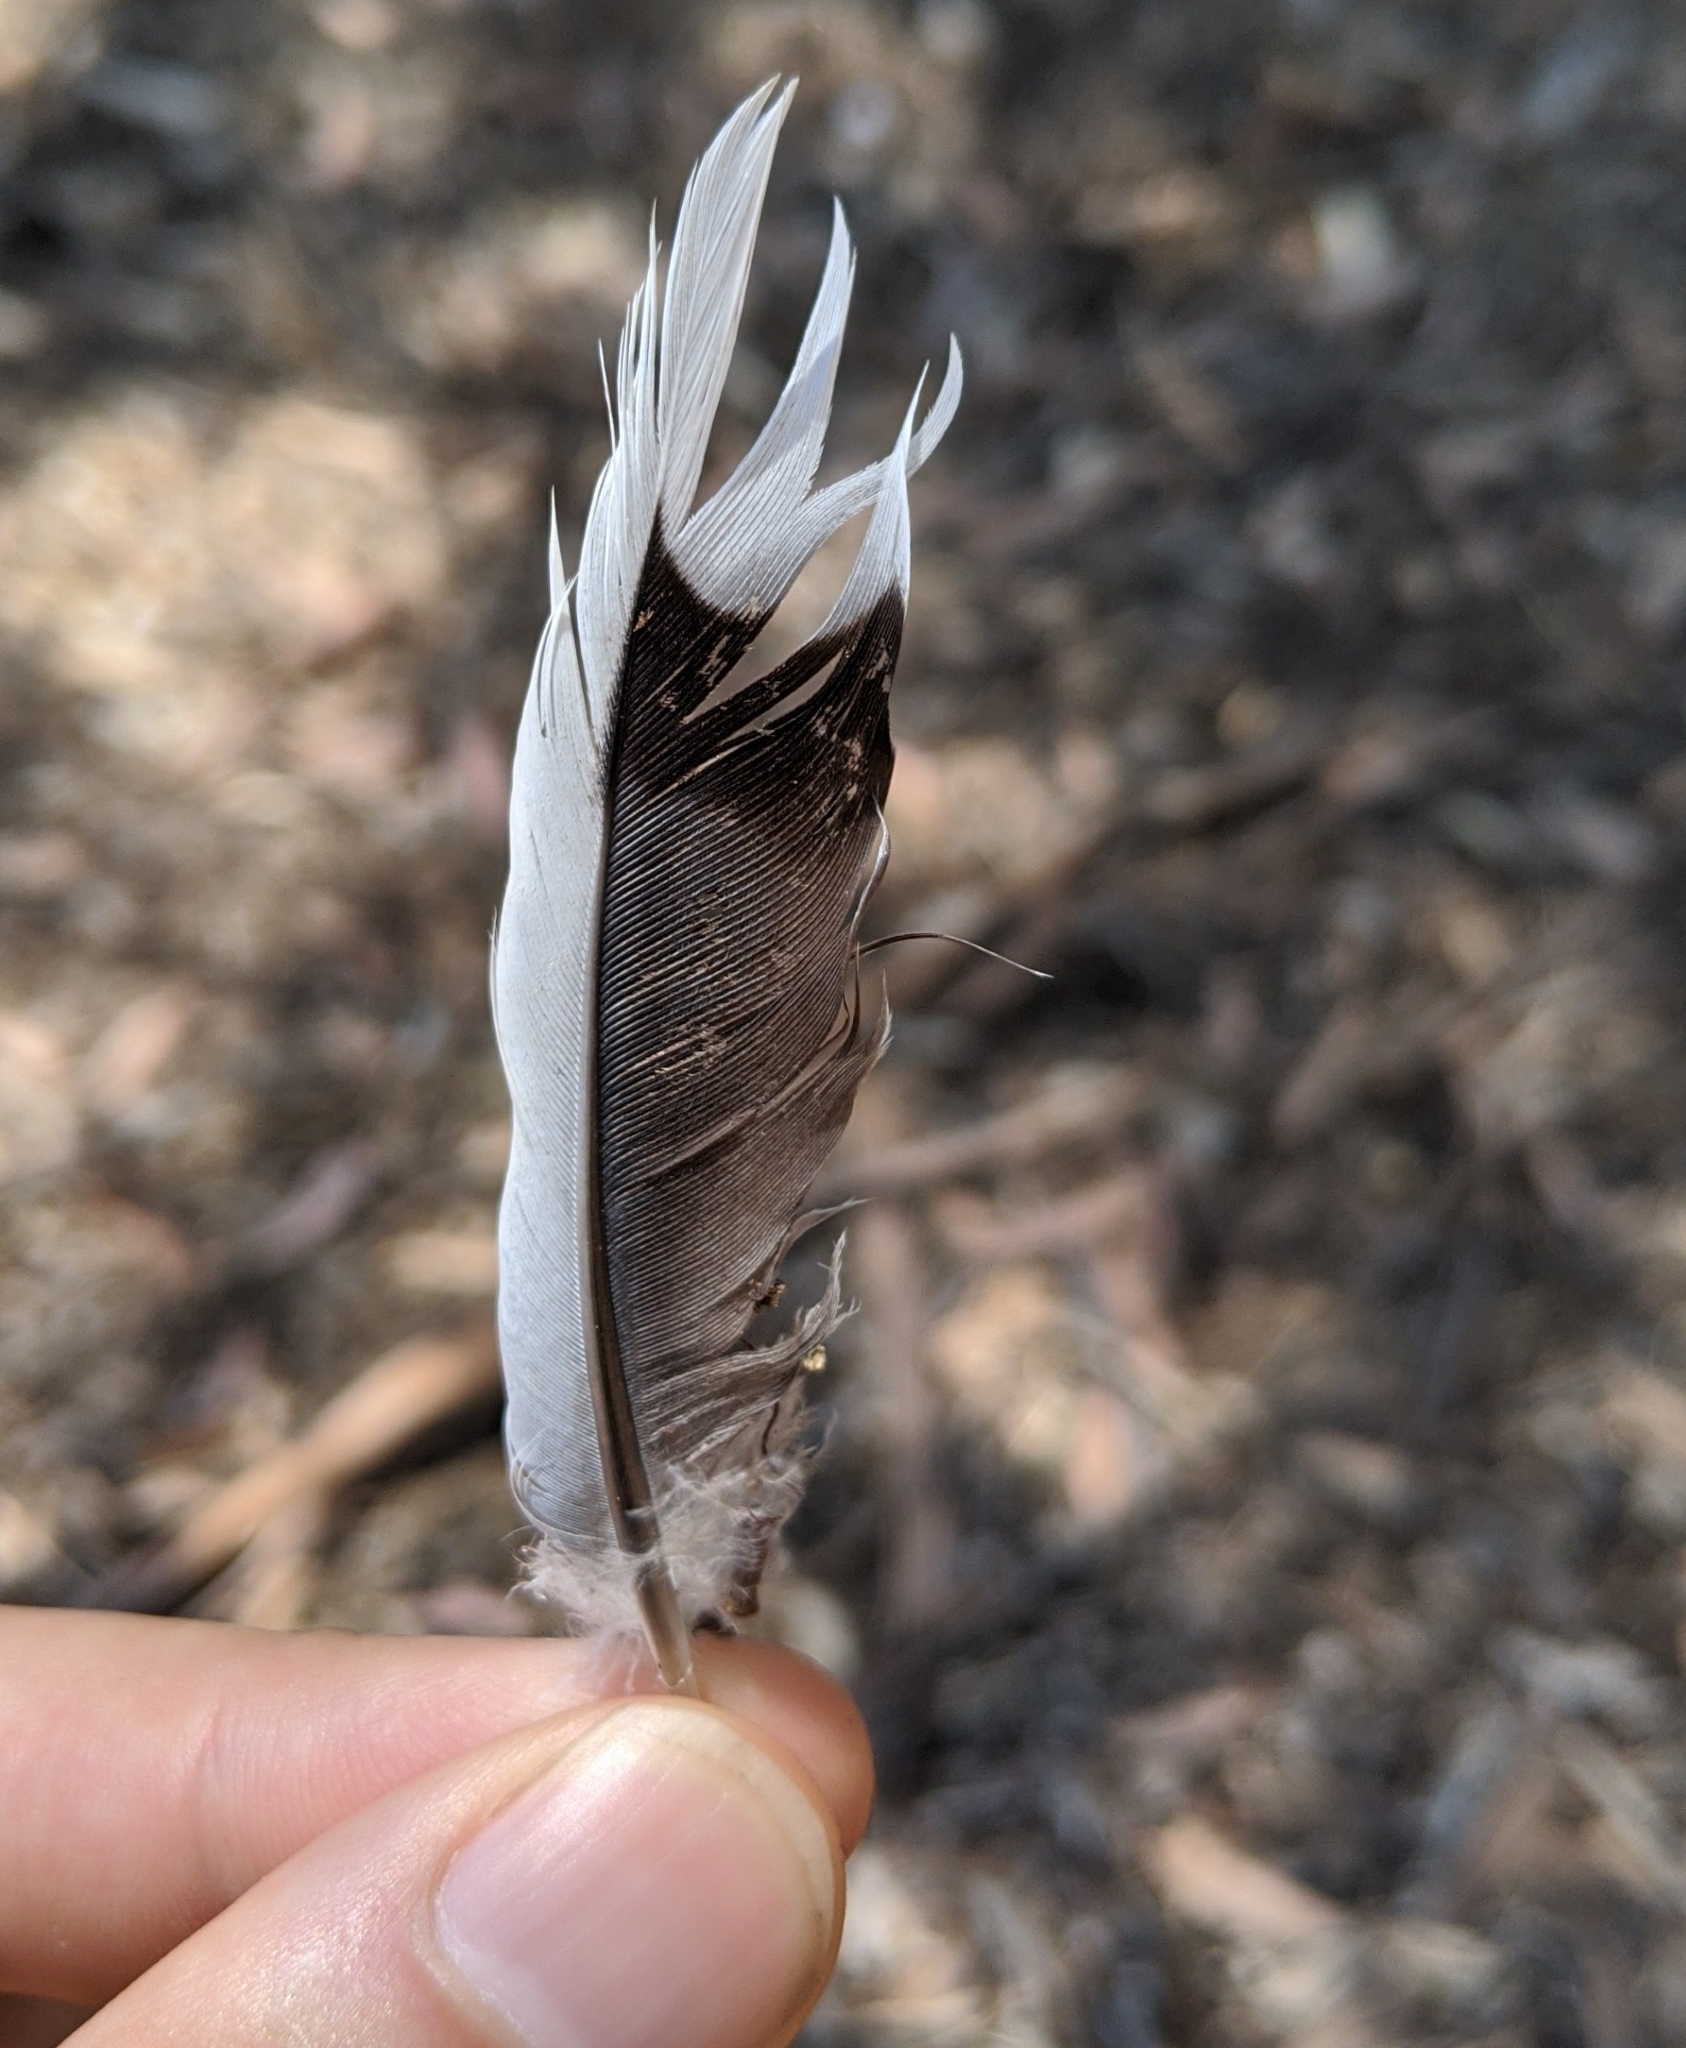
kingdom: Animalia
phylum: Chordata
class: Aves
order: Columbiformes
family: Columbidae
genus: Zenaida
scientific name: Zenaida macroura
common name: Mourning dove
